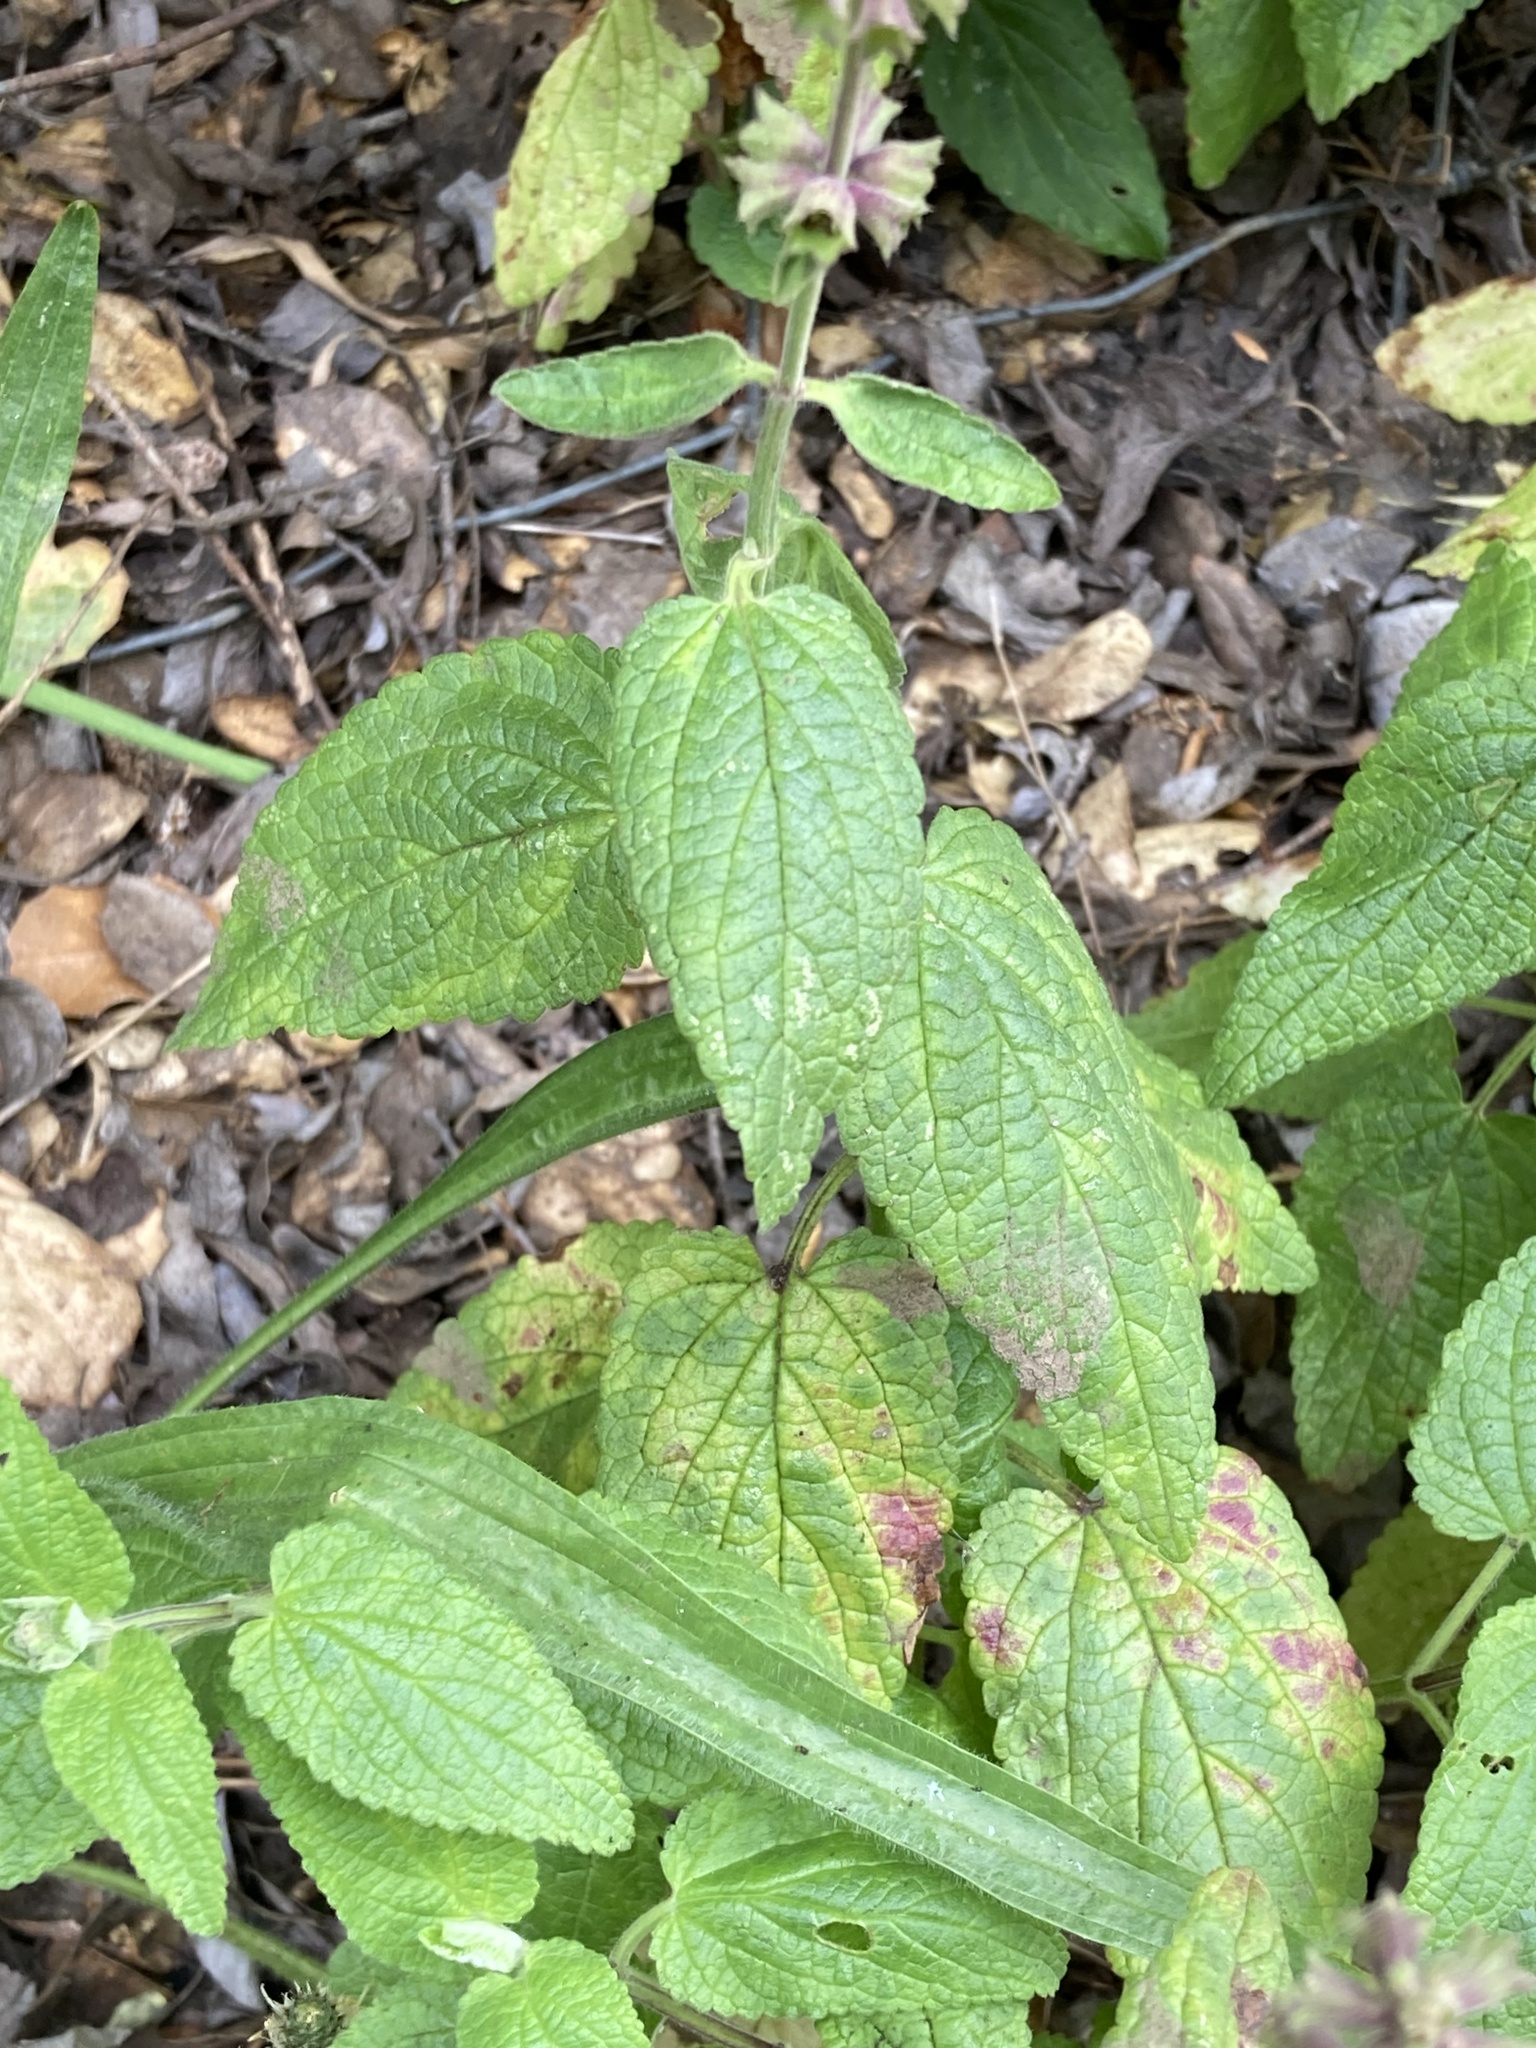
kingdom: Plantae
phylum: Tracheophyta
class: Magnoliopsida
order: Lamiales
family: Lamiaceae
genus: Stachys
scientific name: Stachys bullata
